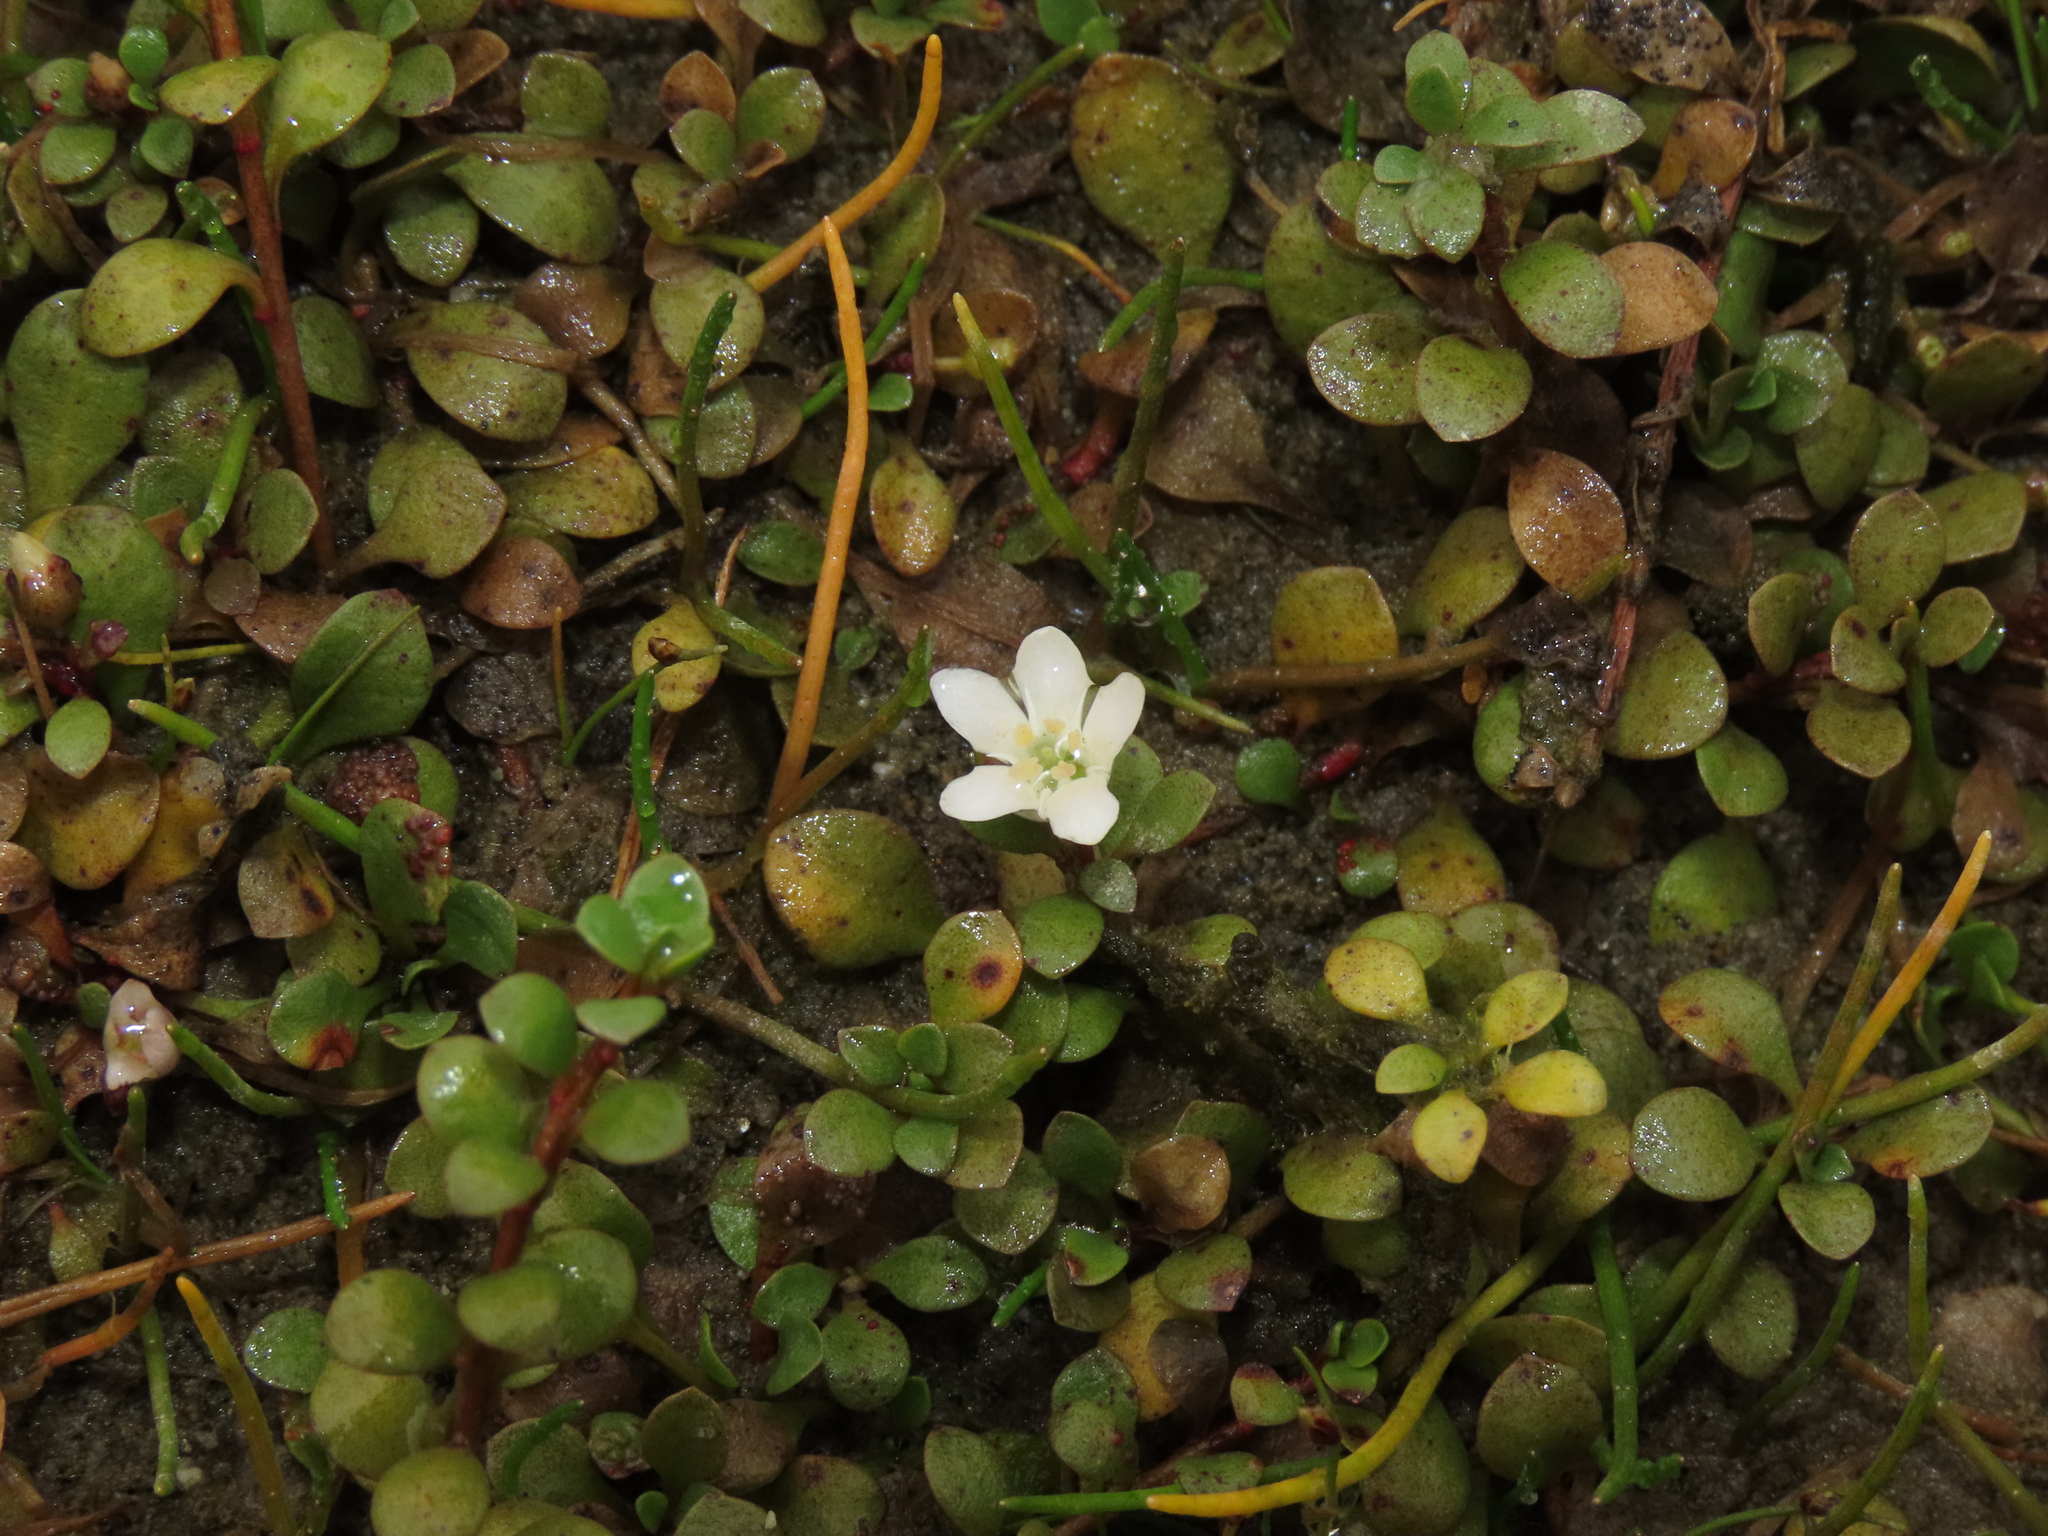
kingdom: Plantae
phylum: Tracheophyta
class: Magnoliopsida
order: Ericales
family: Primulaceae
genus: Samolus
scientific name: Samolus repens
